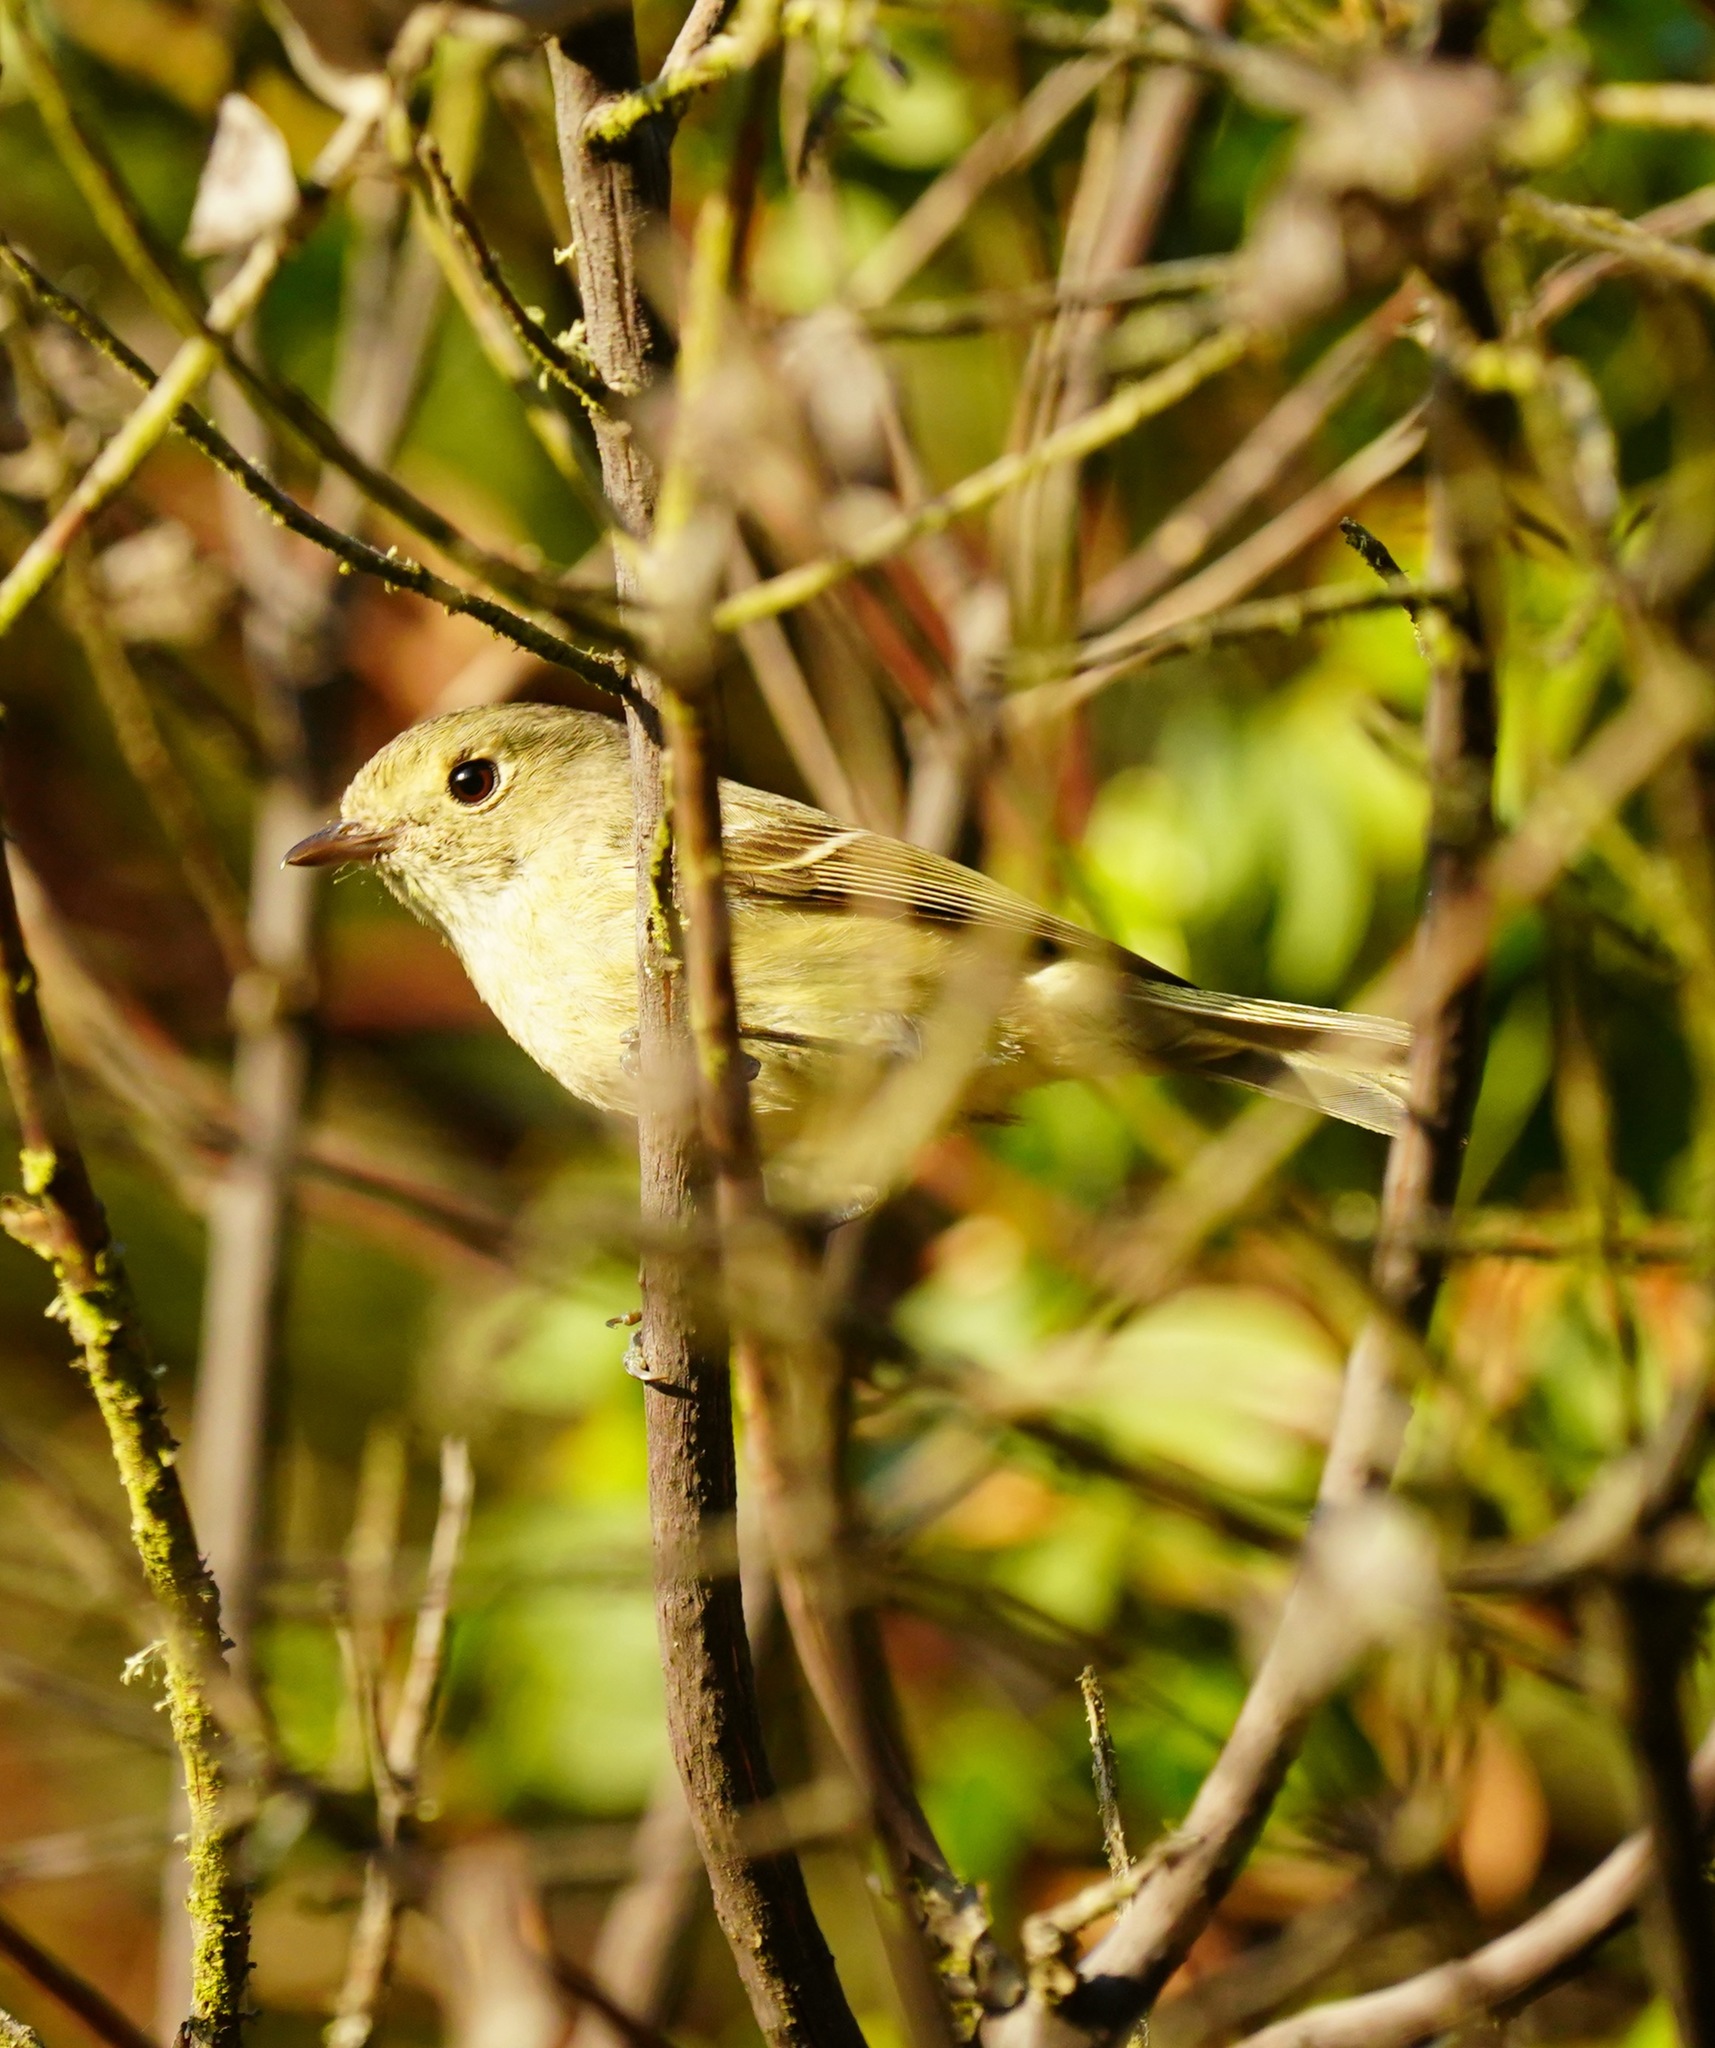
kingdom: Animalia
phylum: Chordata
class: Aves
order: Passeriformes
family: Vireonidae
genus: Vireo
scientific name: Vireo huttoni
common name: Hutton's vireo
